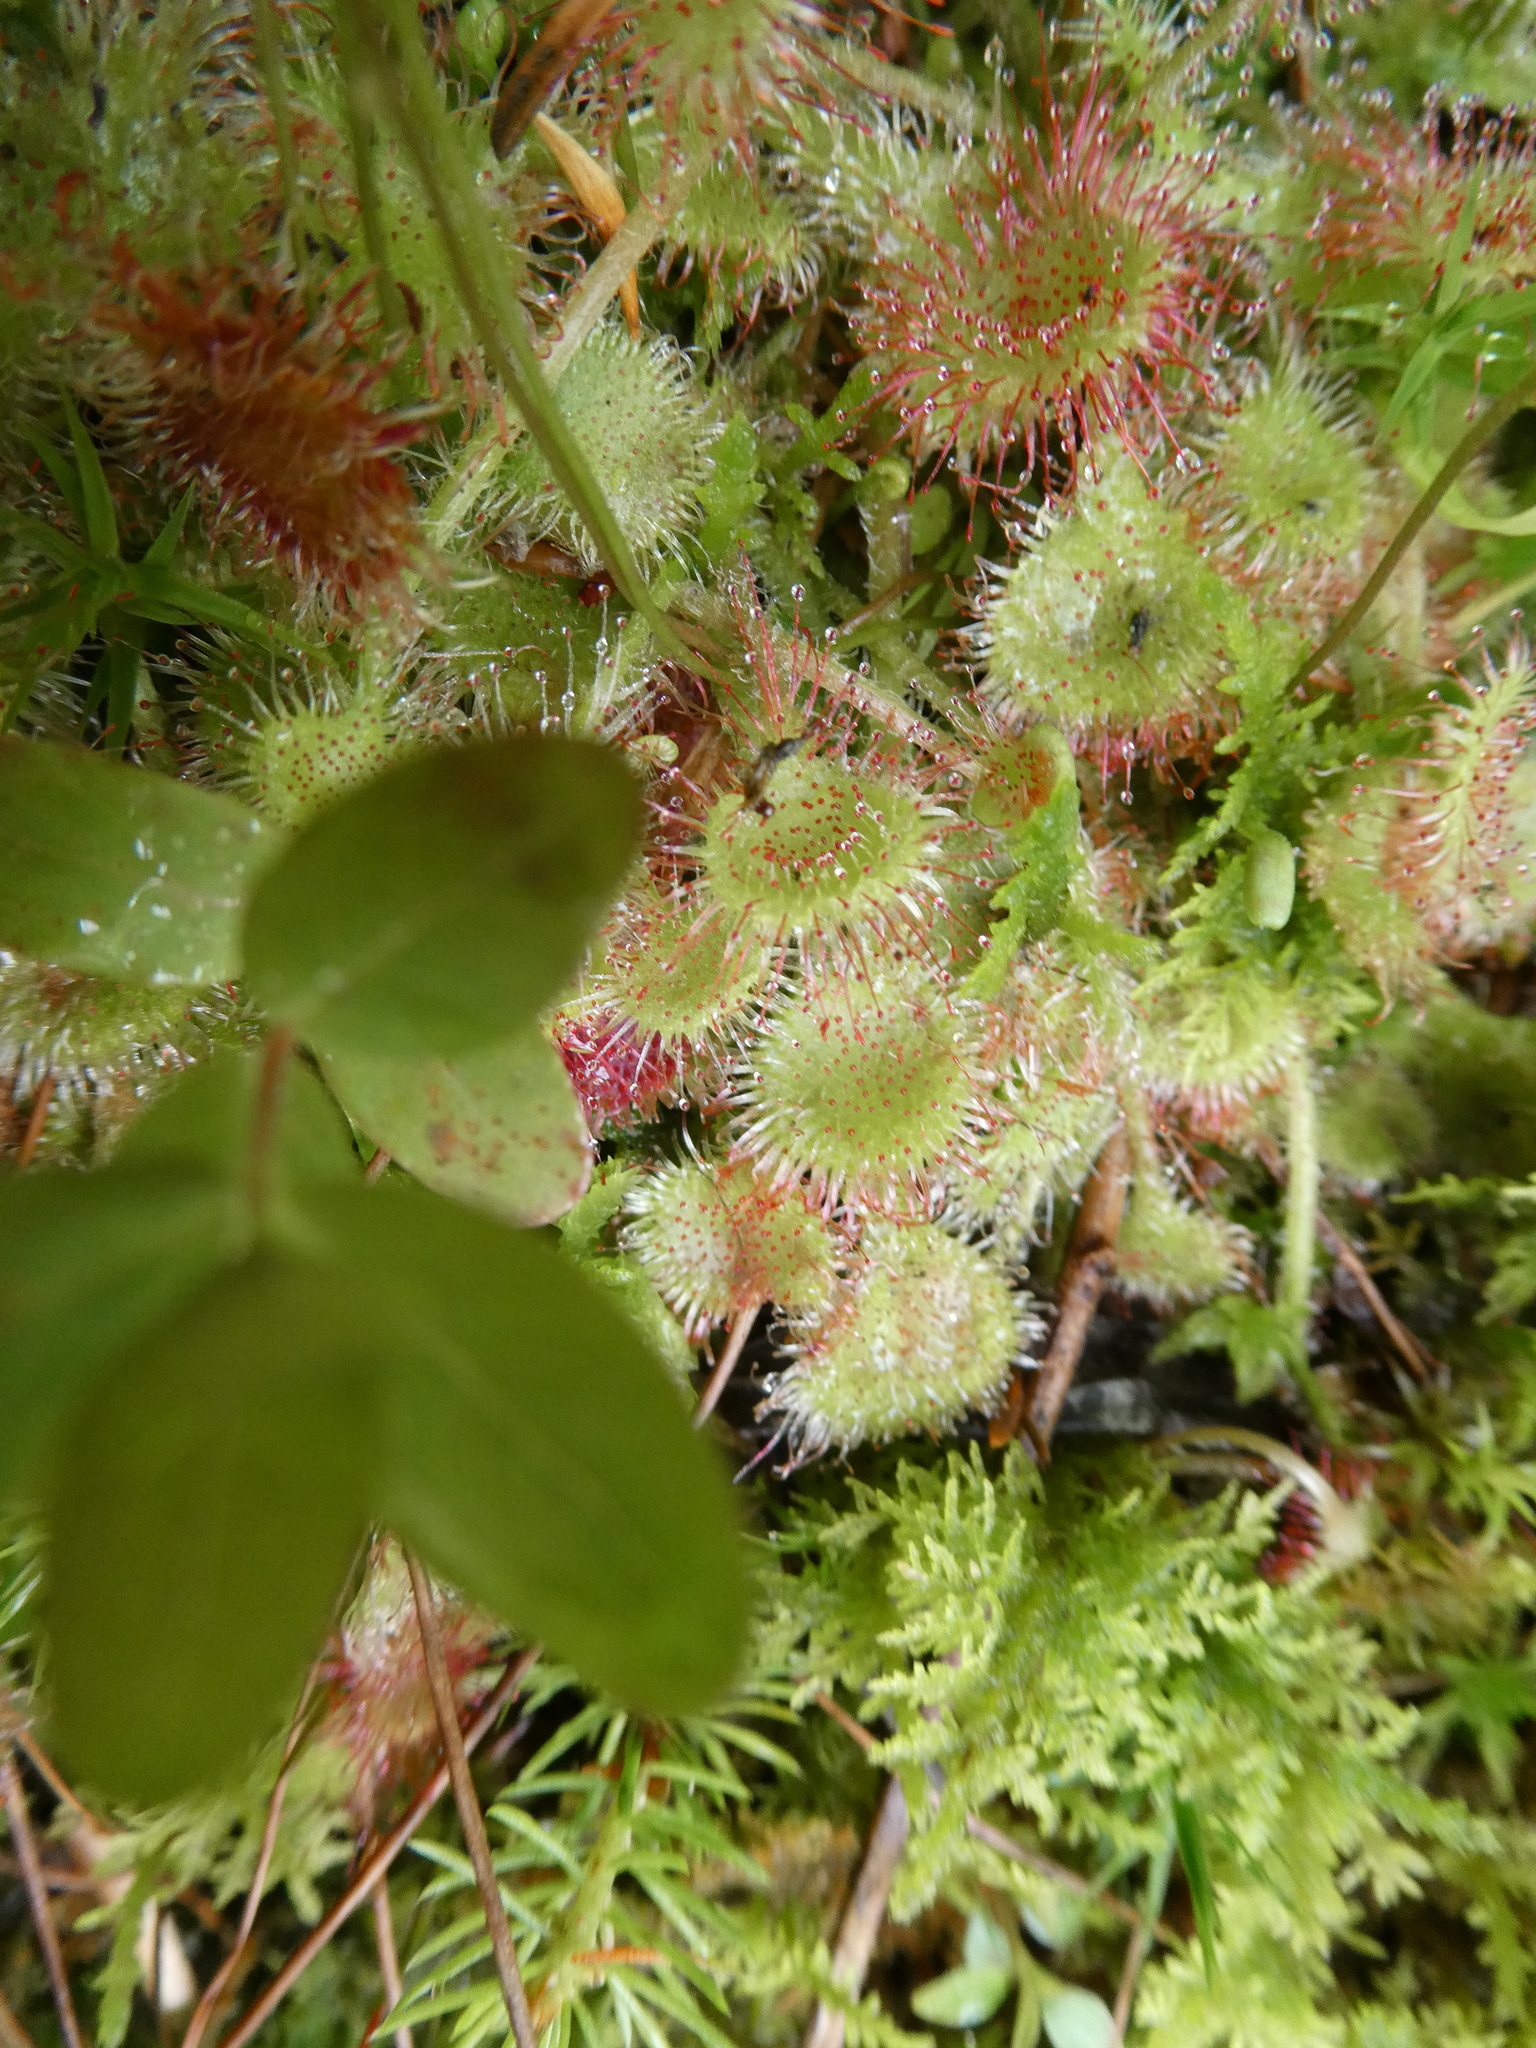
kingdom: Plantae
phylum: Tracheophyta
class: Magnoliopsida
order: Caryophyllales
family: Droseraceae
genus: Drosera
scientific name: Drosera rotundifolia
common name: Round-leaved sundew
